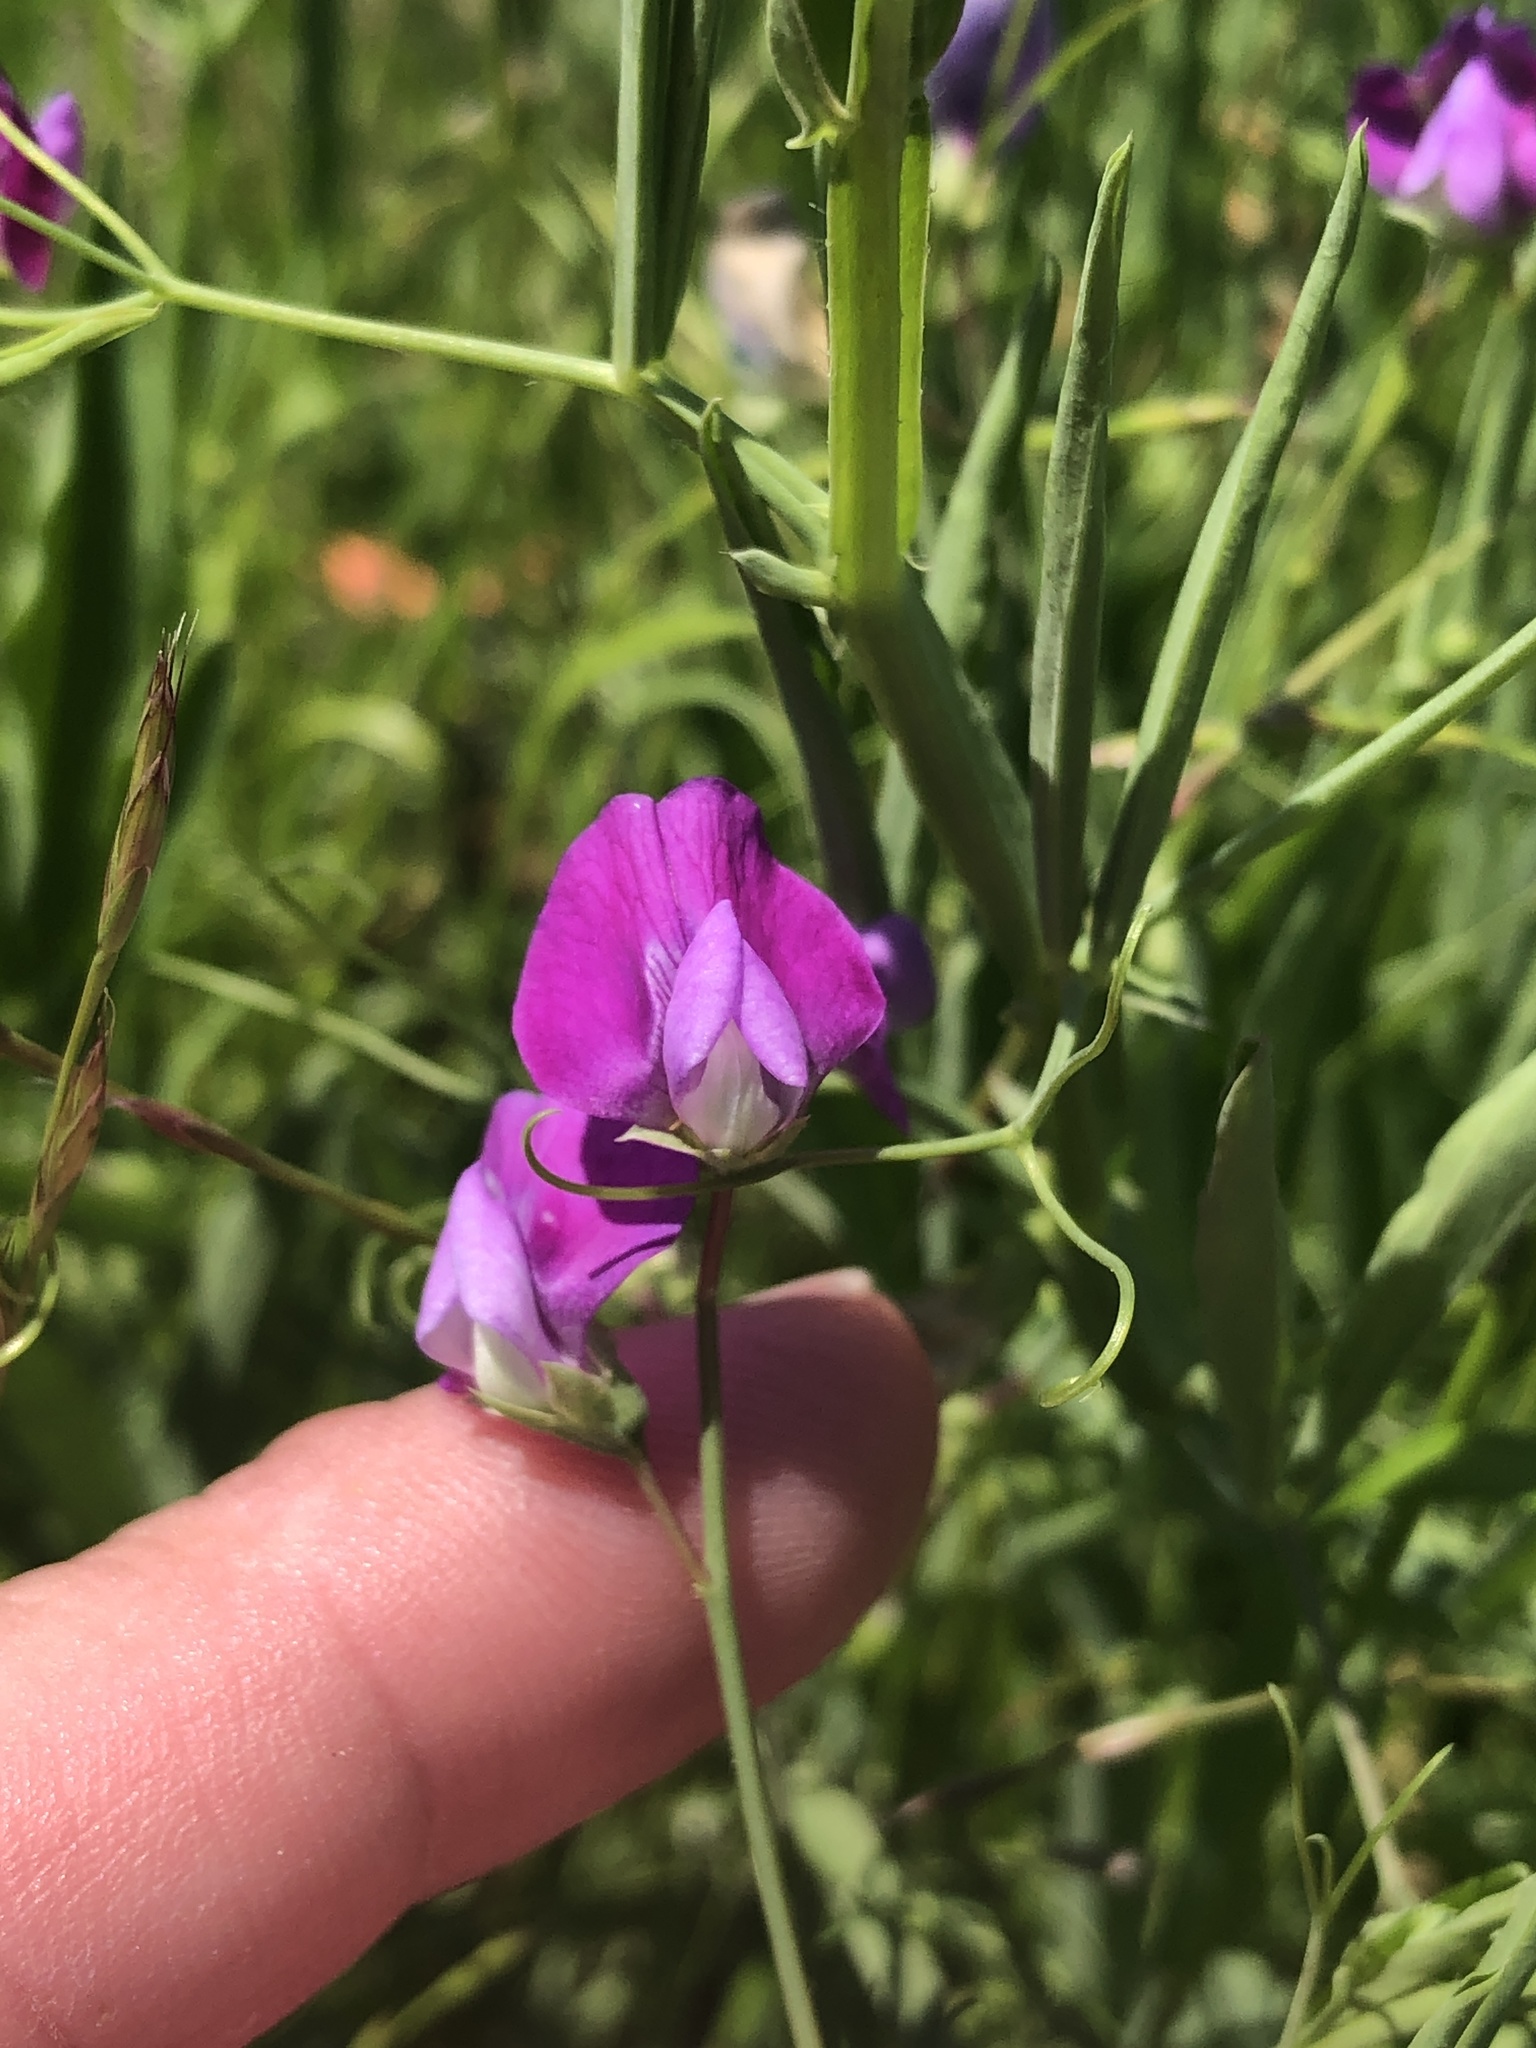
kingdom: Plantae
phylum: Tracheophyta
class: Magnoliopsida
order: Fabales
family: Fabaceae
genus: Lathyrus
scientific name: Lathyrus hirsutus
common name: Hairy vetchling
